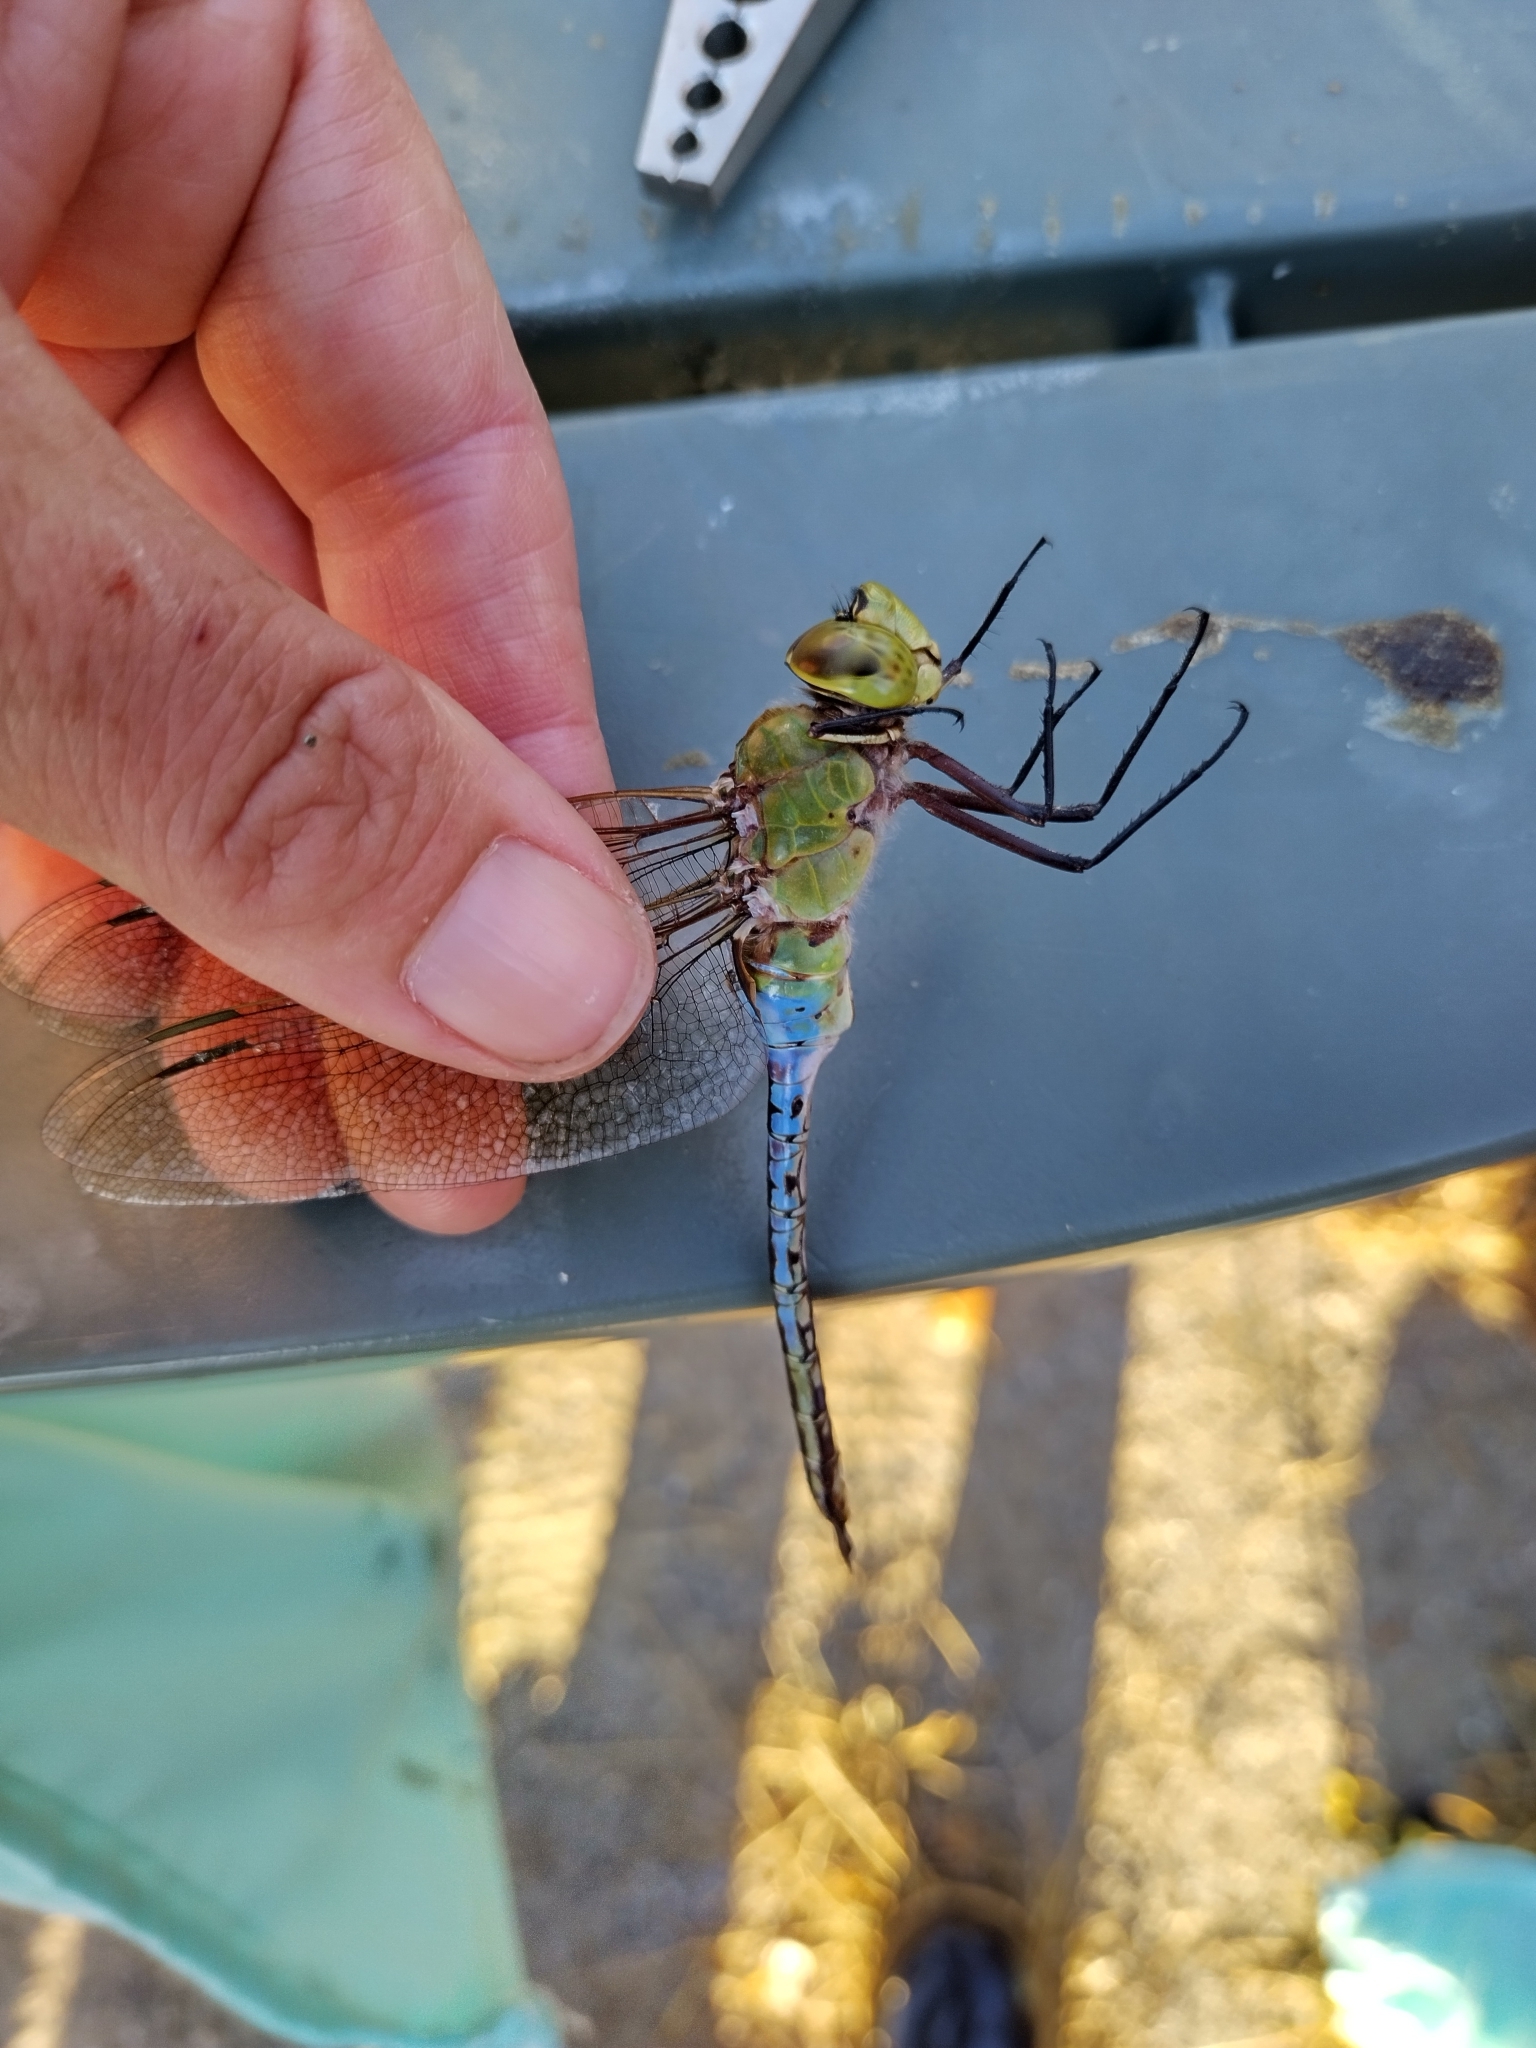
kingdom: Animalia
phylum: Arthropoda
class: Insecta
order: Odonata
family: Aeshnidae
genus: Anax
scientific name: Anax junius
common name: Common green darner
